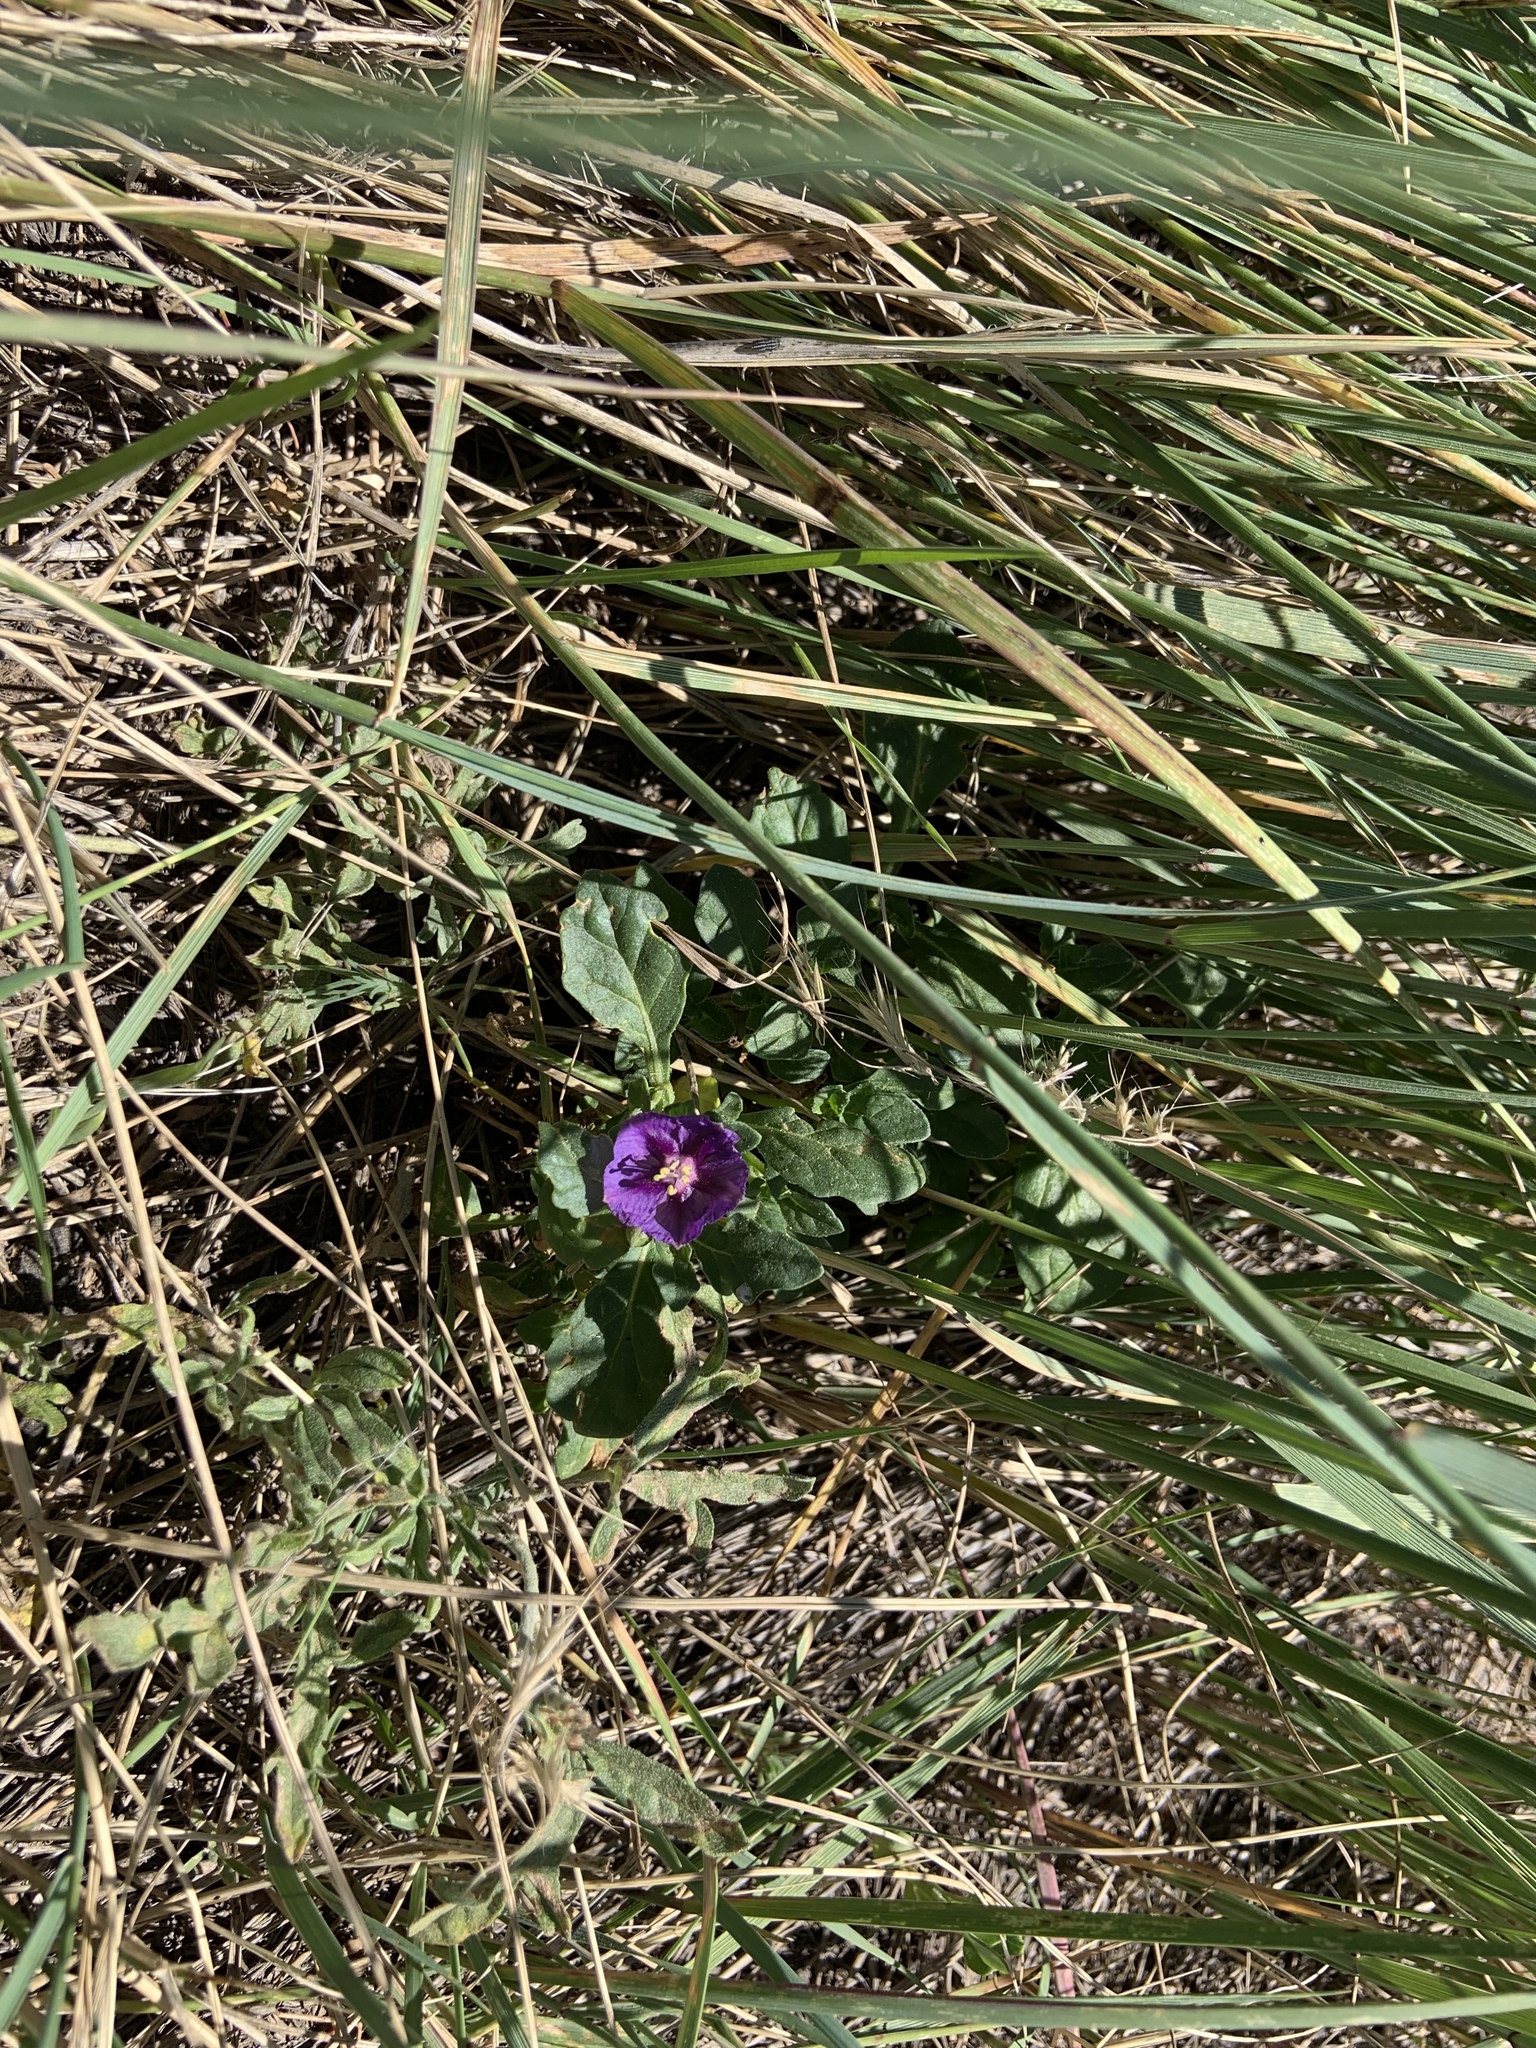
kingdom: Plantae
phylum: Tracheophyta
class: Magnoliopsida
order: Solanales
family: Solanaceae
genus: Quincula
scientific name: Quincula lobata
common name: Purple-ground-cherry
